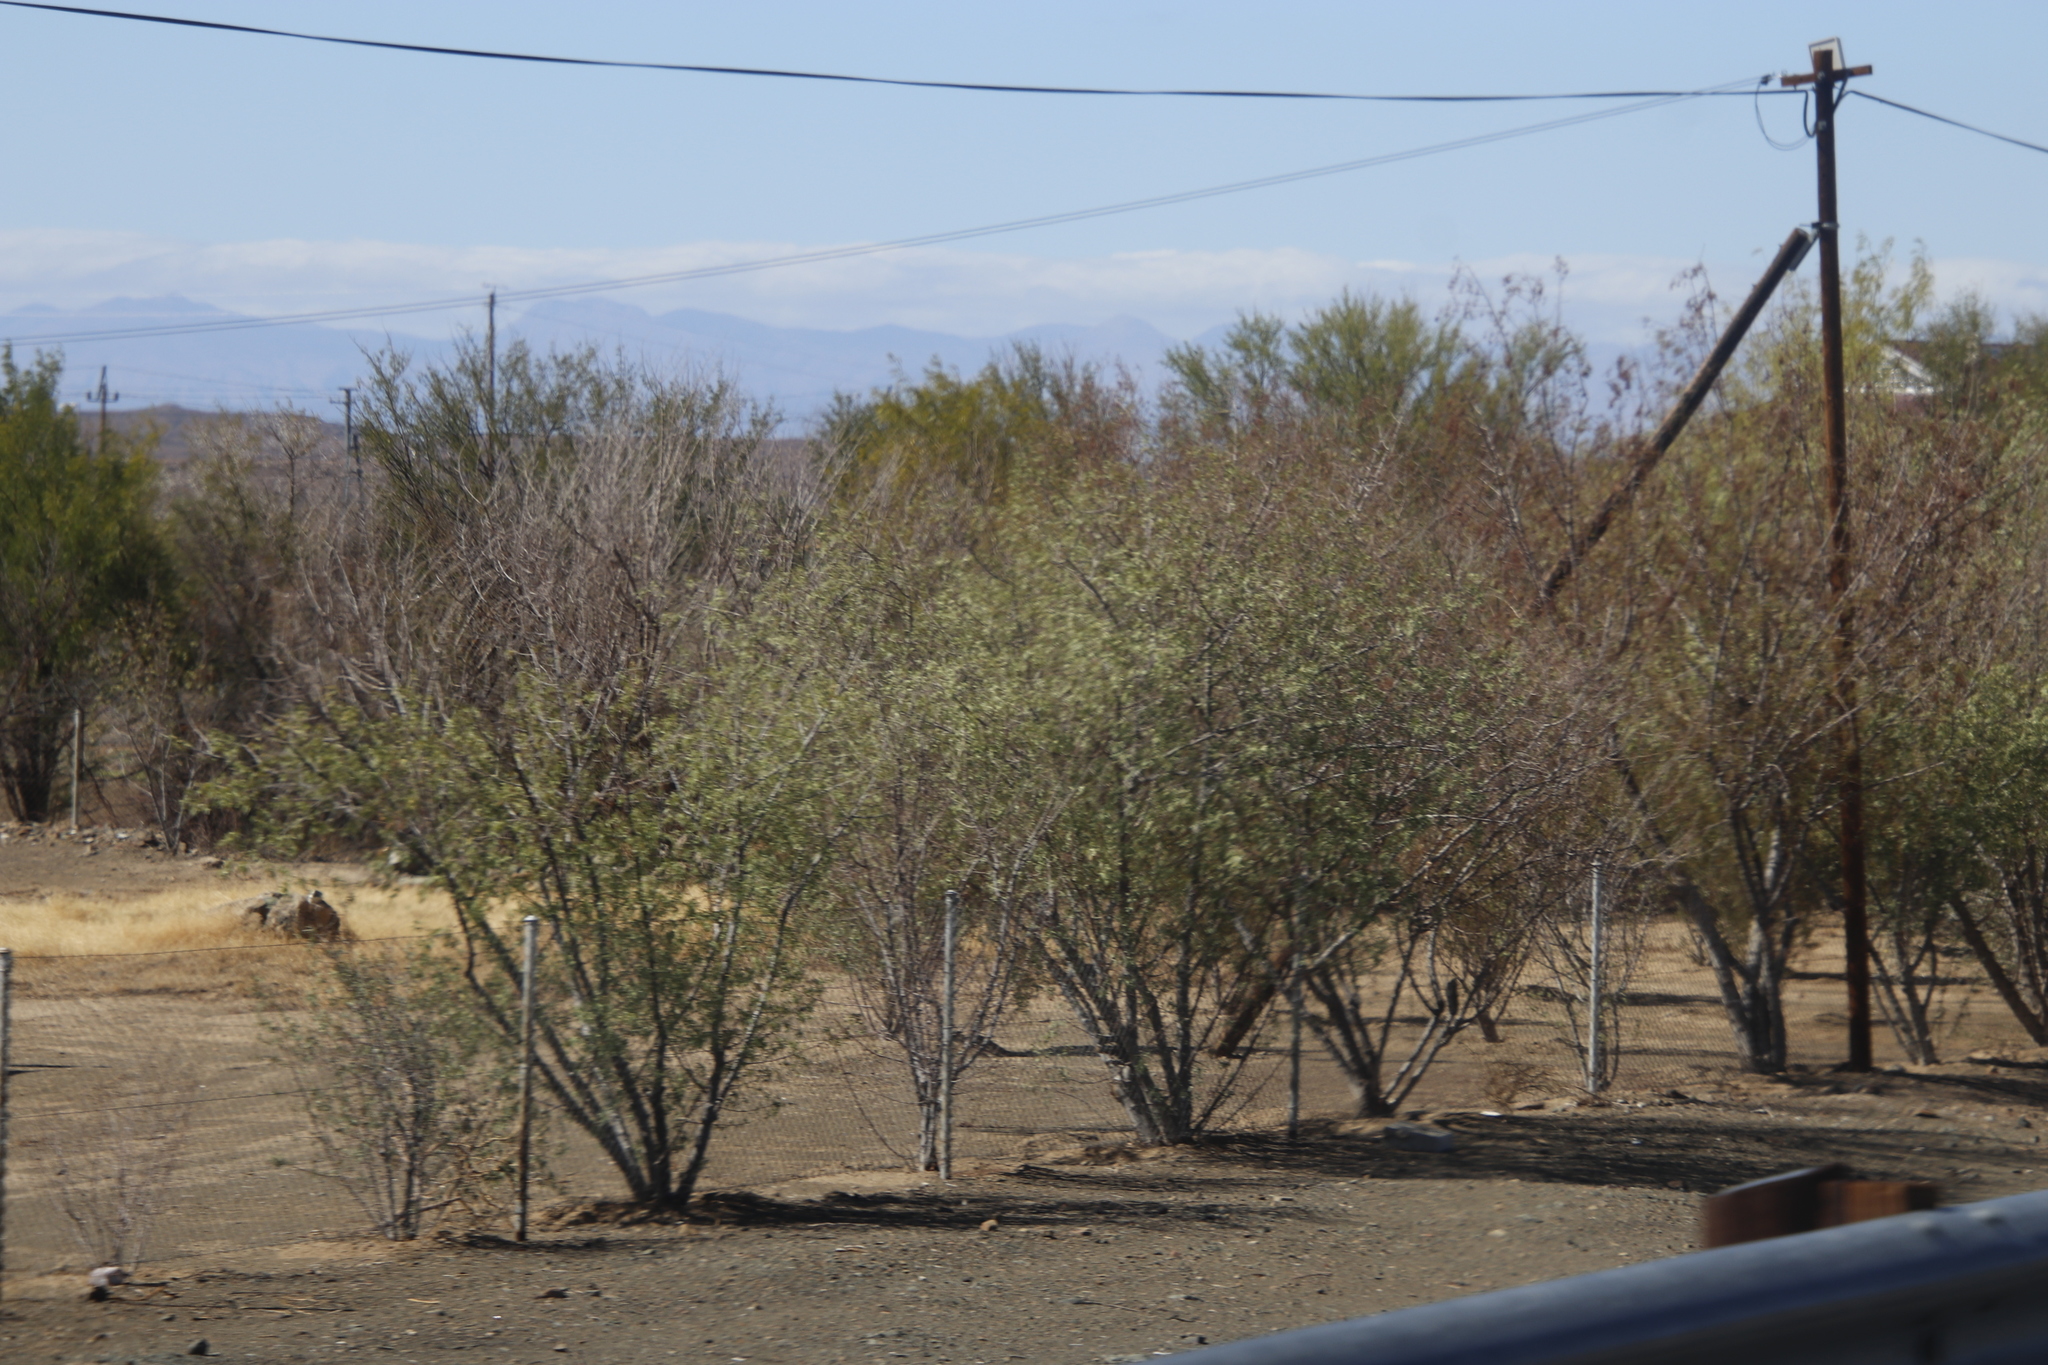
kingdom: Plantae
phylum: Tracheophyta
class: Magnoliopsida
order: Fabales
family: Fabaceae
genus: Prosopis
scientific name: Prosopis glandulosa
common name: Honey mesquite
